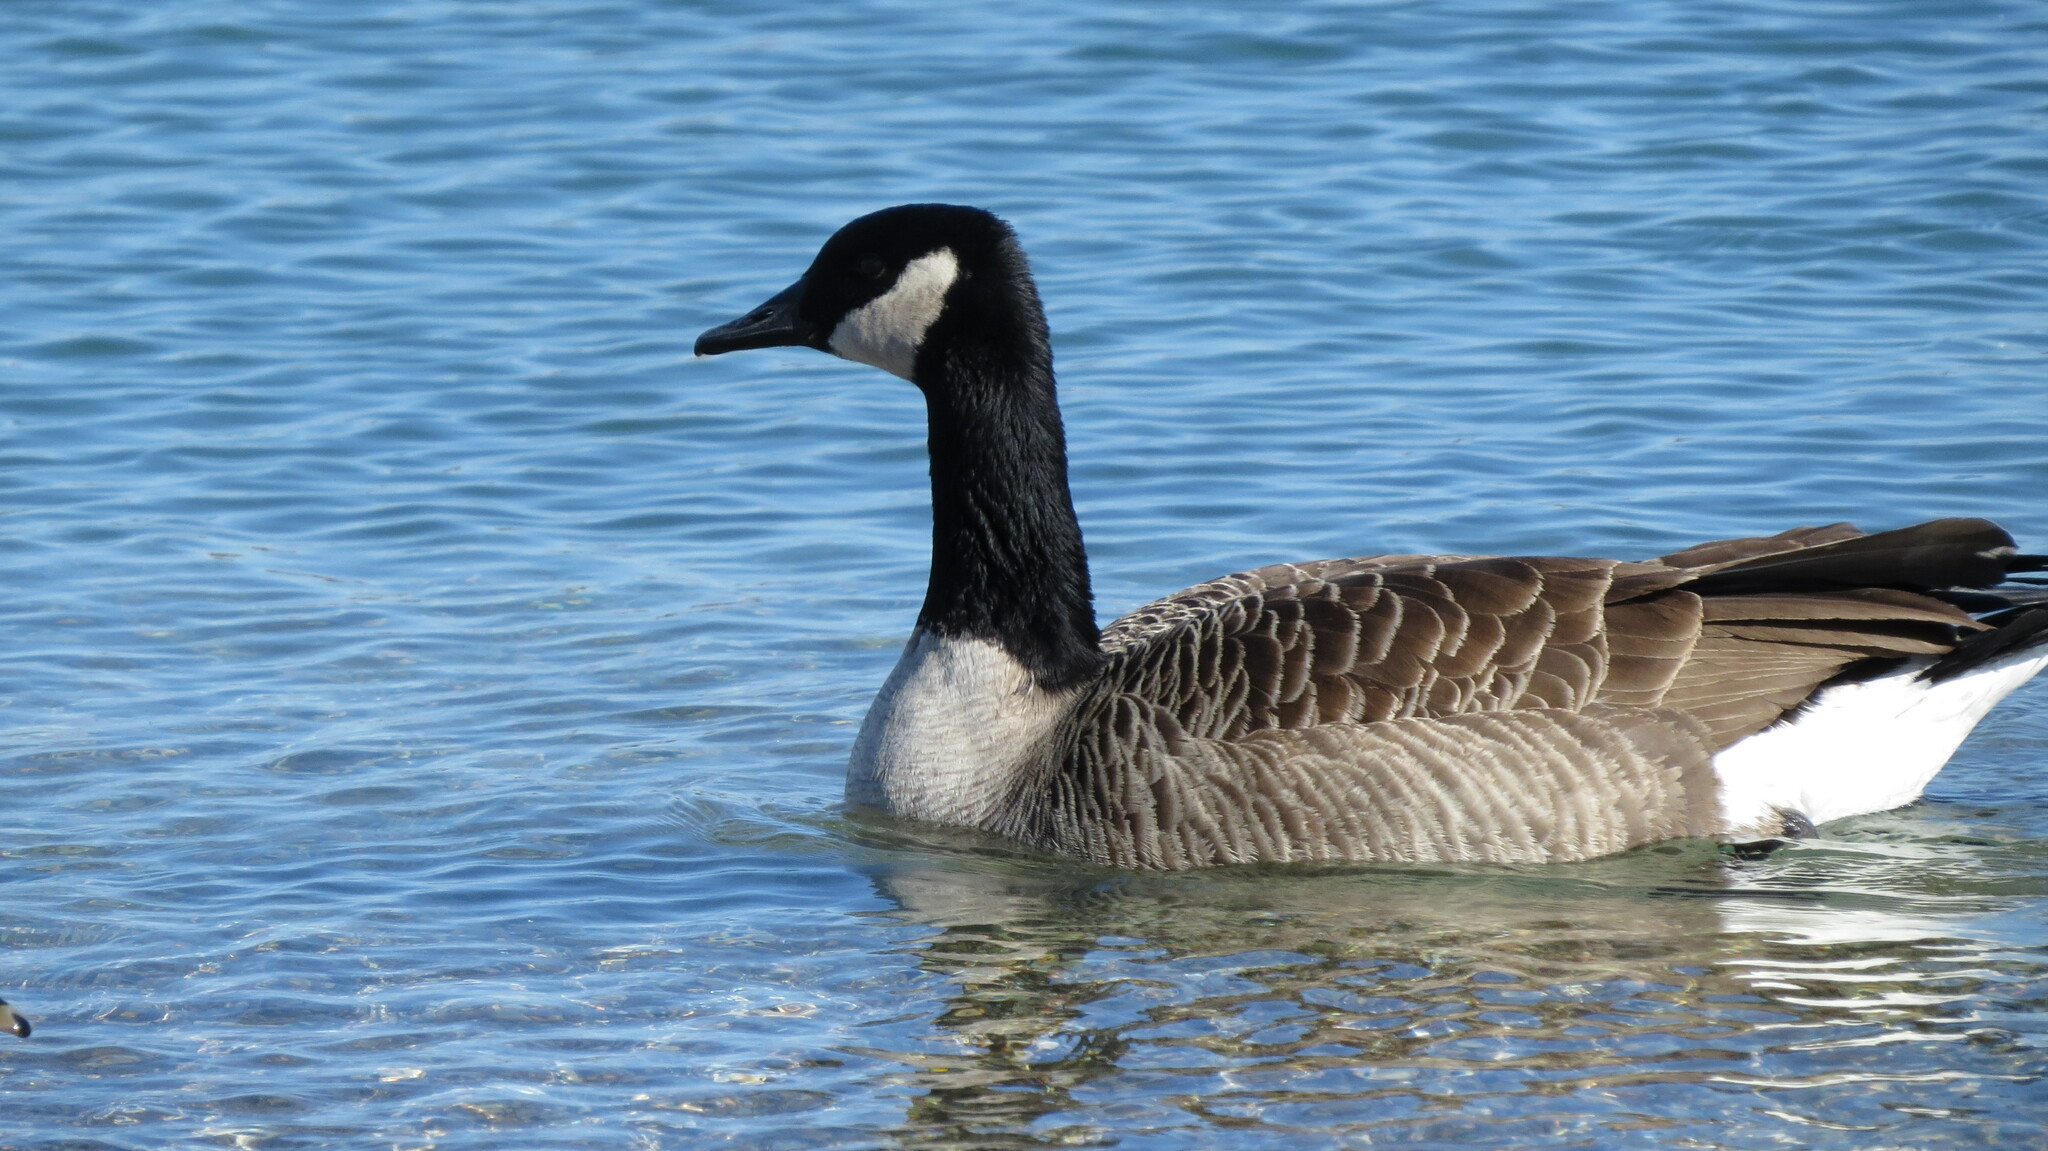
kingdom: Animalia
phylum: Chordata
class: Aves
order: Anseriformes
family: Anatidae
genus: Branta
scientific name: Branta canadensis
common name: Canada goose
